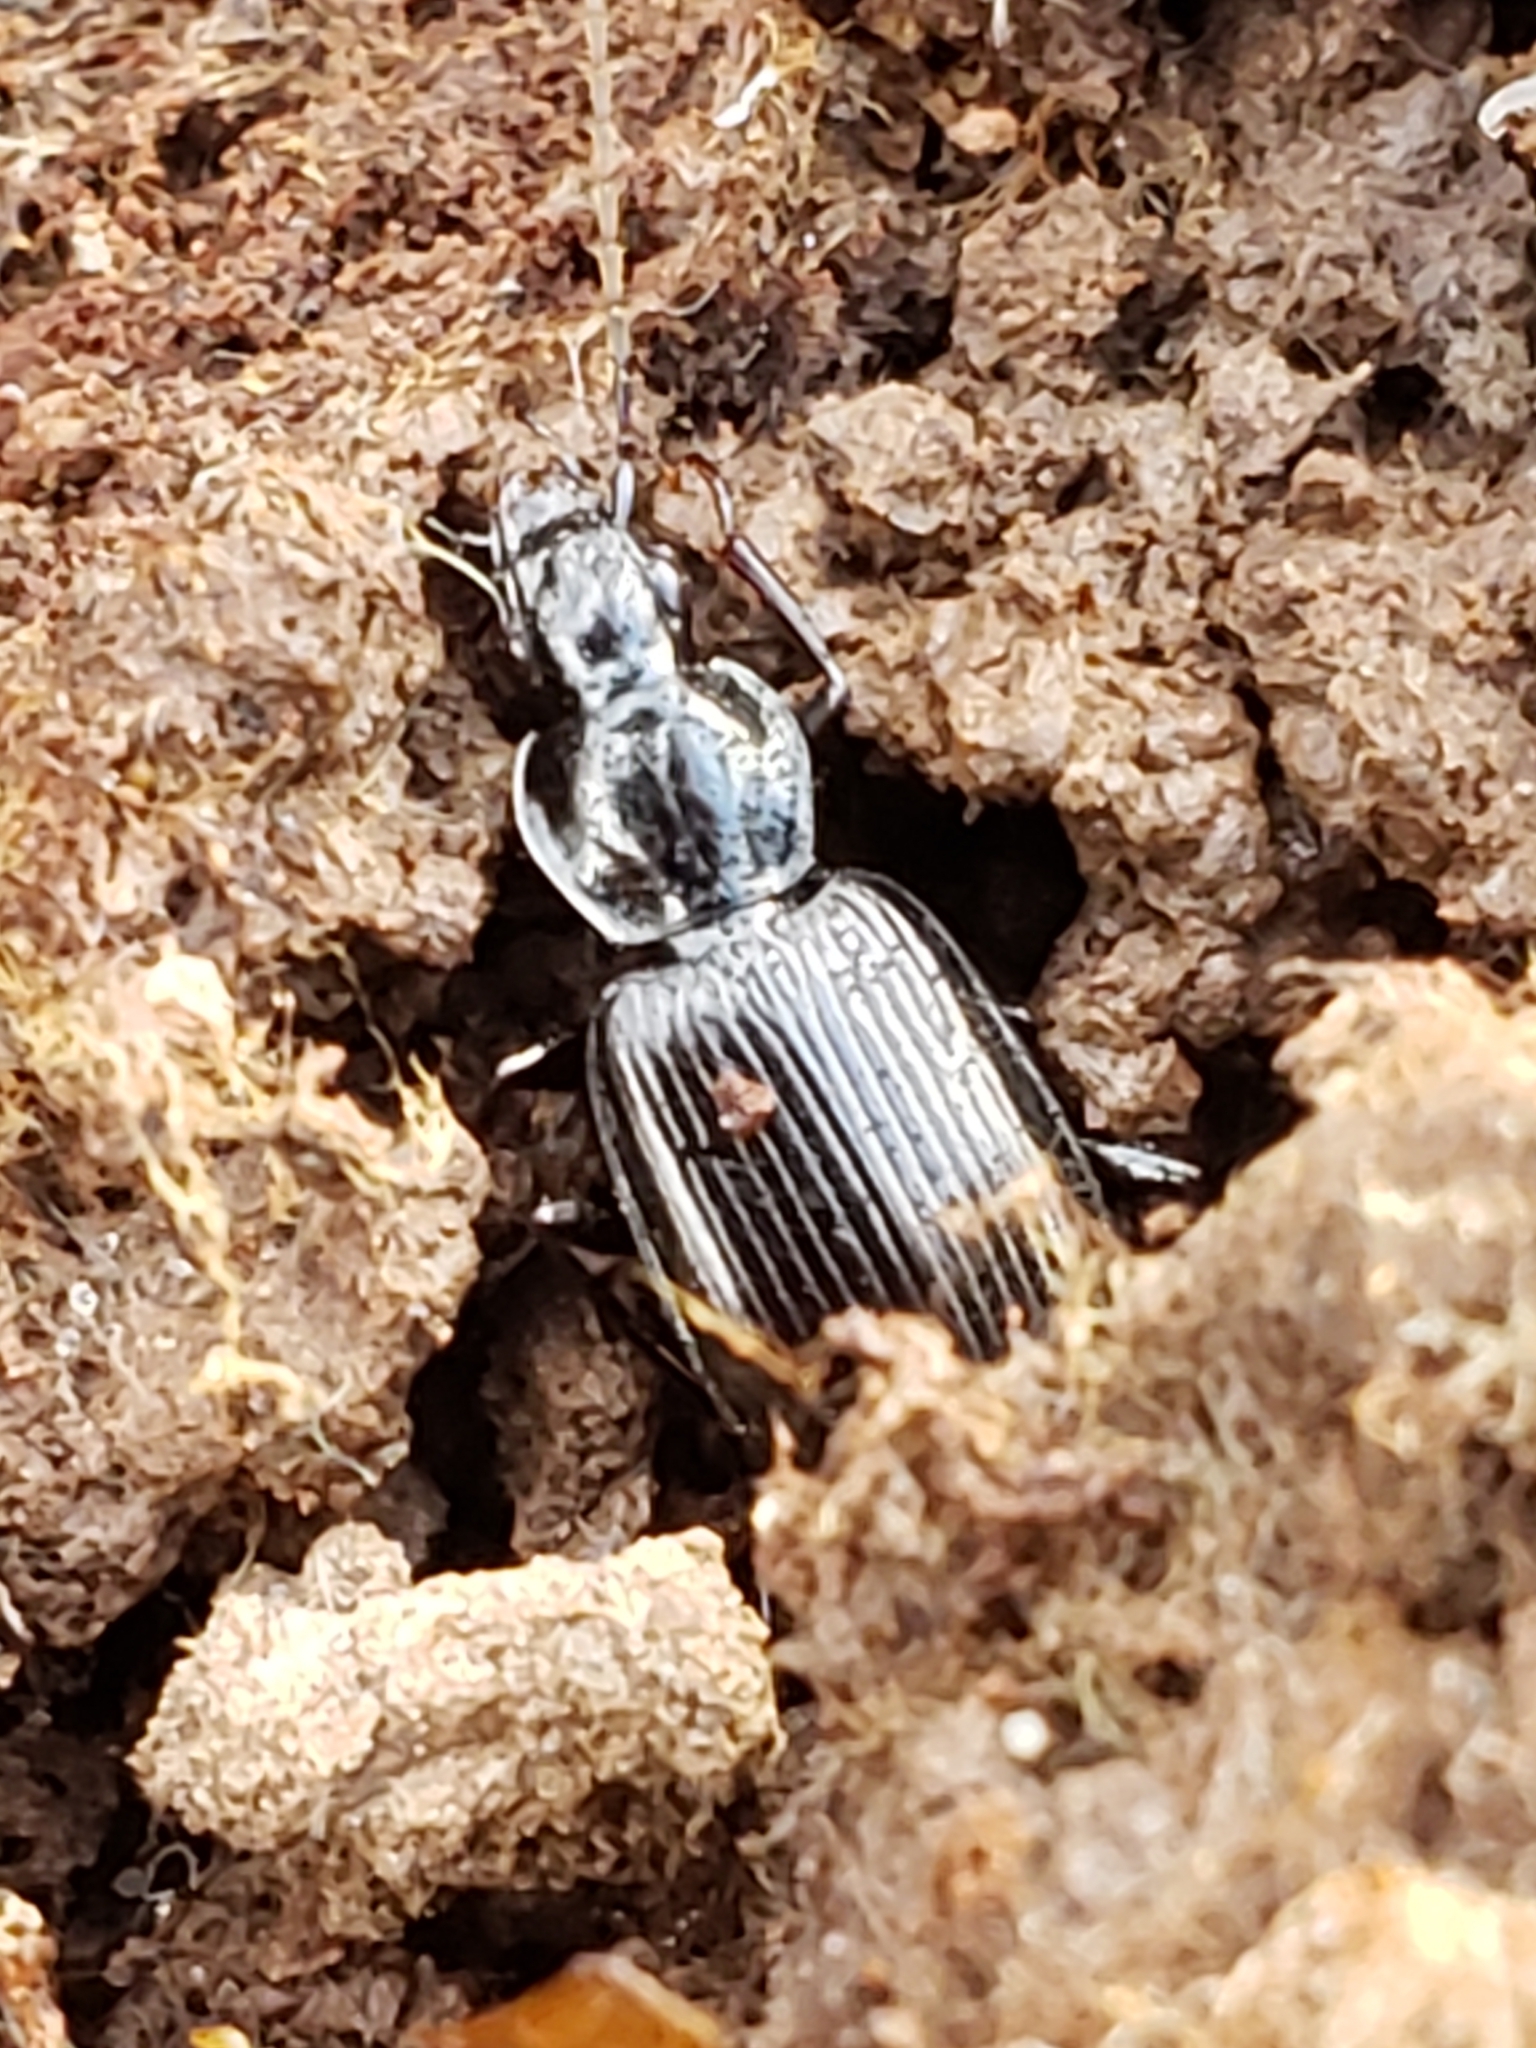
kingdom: Animalia
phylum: Arthropoda
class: Insecta
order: Coleoptera
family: Carabidae
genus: Platynus
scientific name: Platynus decentis
